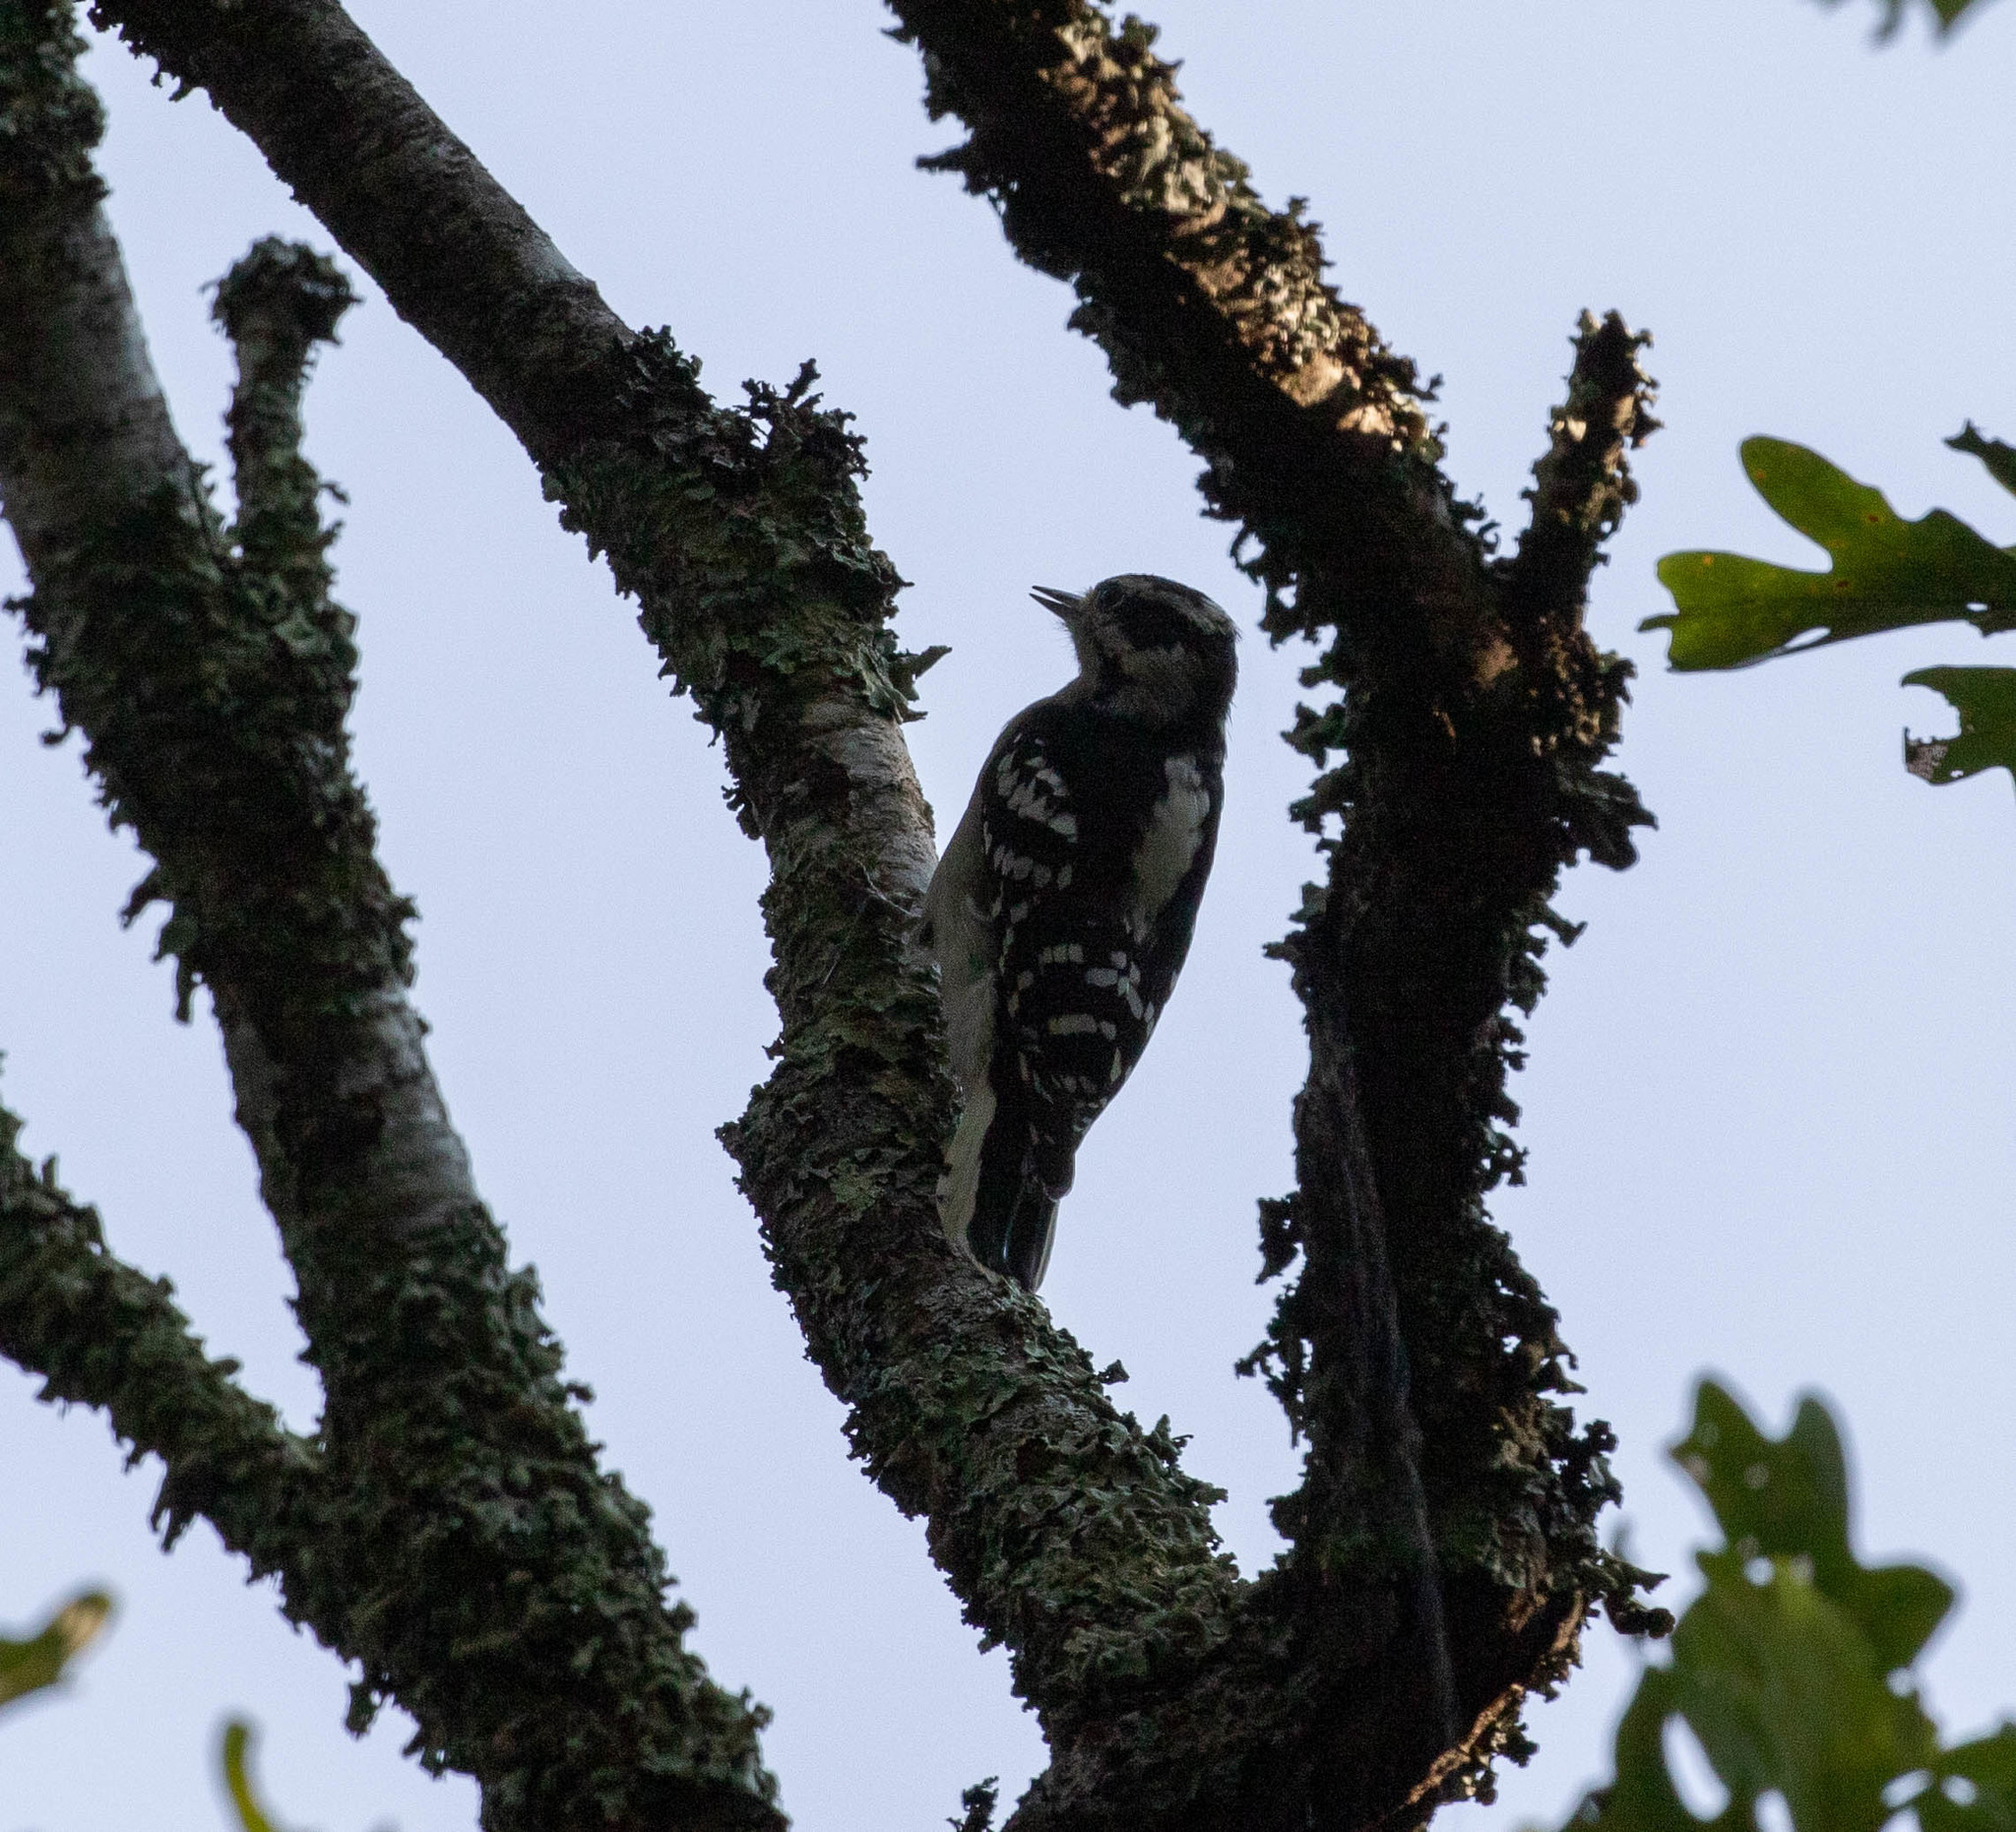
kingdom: Animalia
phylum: Chordata
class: Aves
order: Piciformes
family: Picidae
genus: Dryobates
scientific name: Dryobates pubescens
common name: Downy woodpecker
